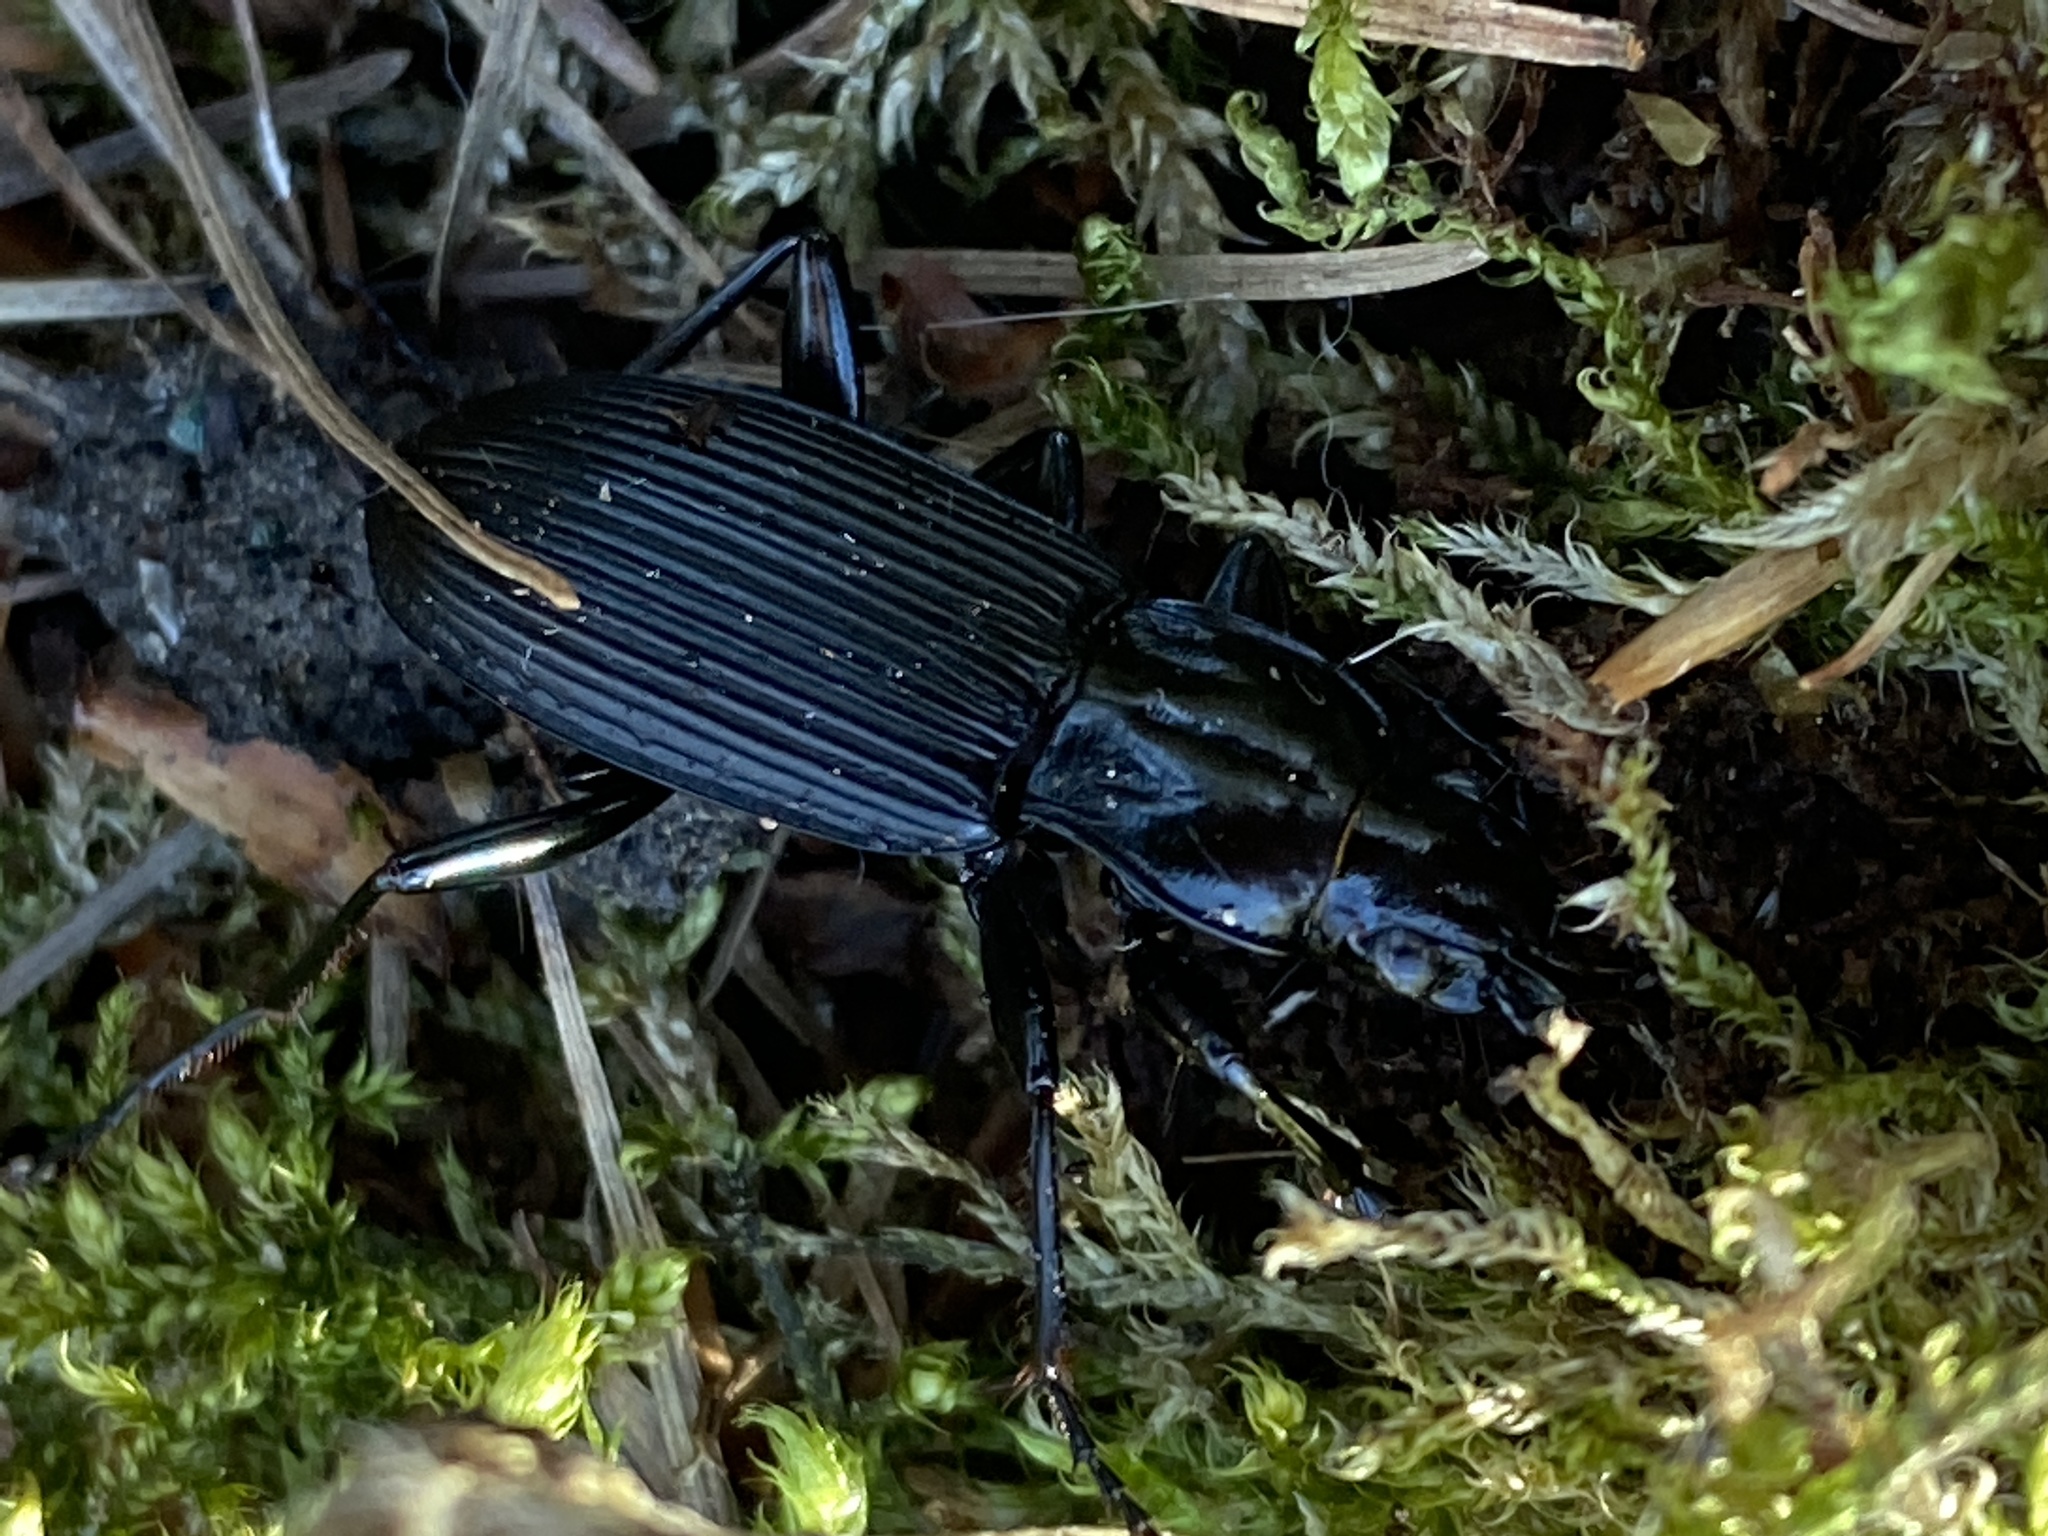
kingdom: Animalia
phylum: Arthropoda
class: Insecta
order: Coleoptera
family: Carabidae
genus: Pterostichus
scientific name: Pterostichus niger
